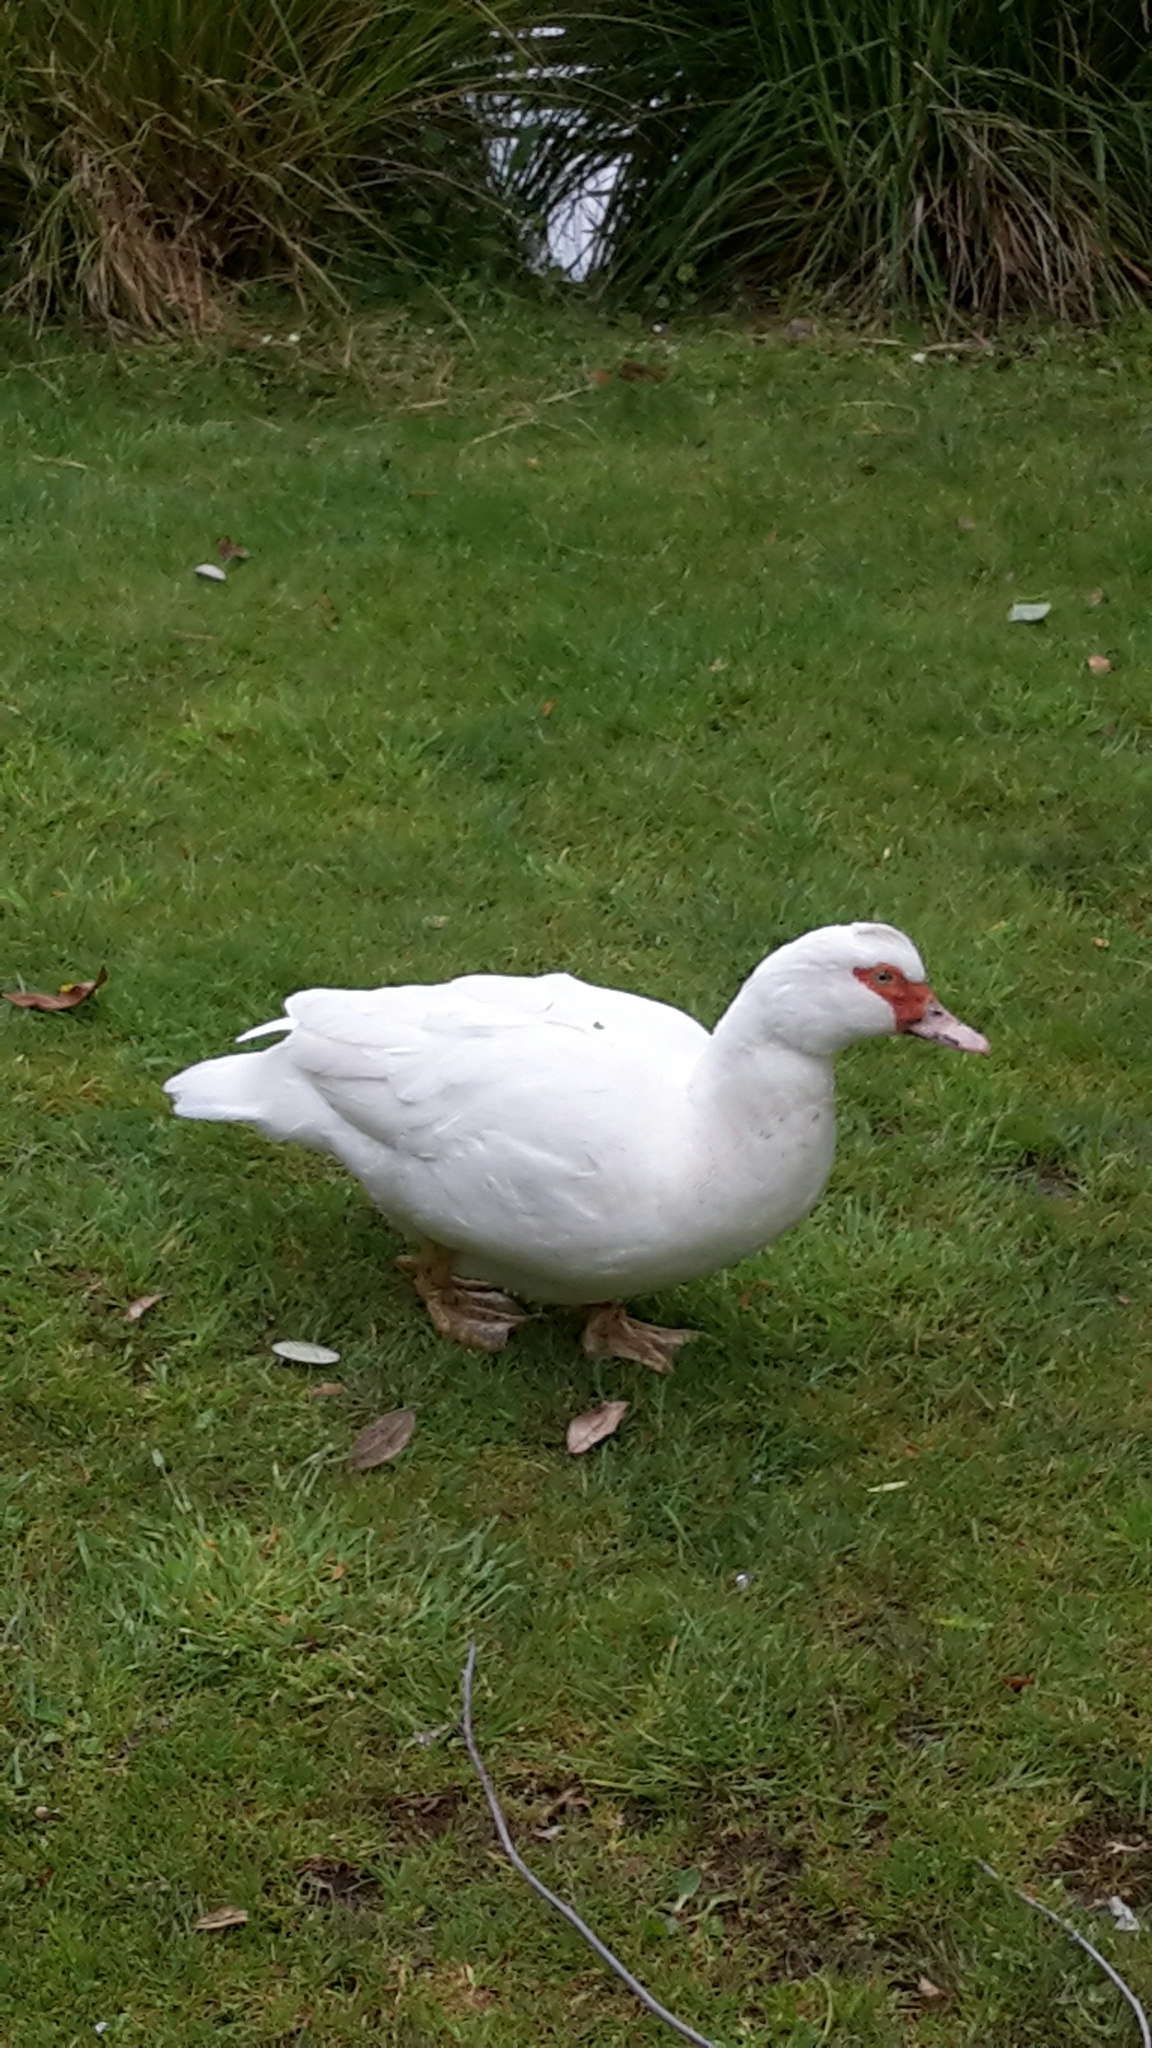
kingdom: Animalia
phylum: Chordata
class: Aves
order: Anseriformes
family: Anatidae
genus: Cairina
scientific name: Cairina moschata
